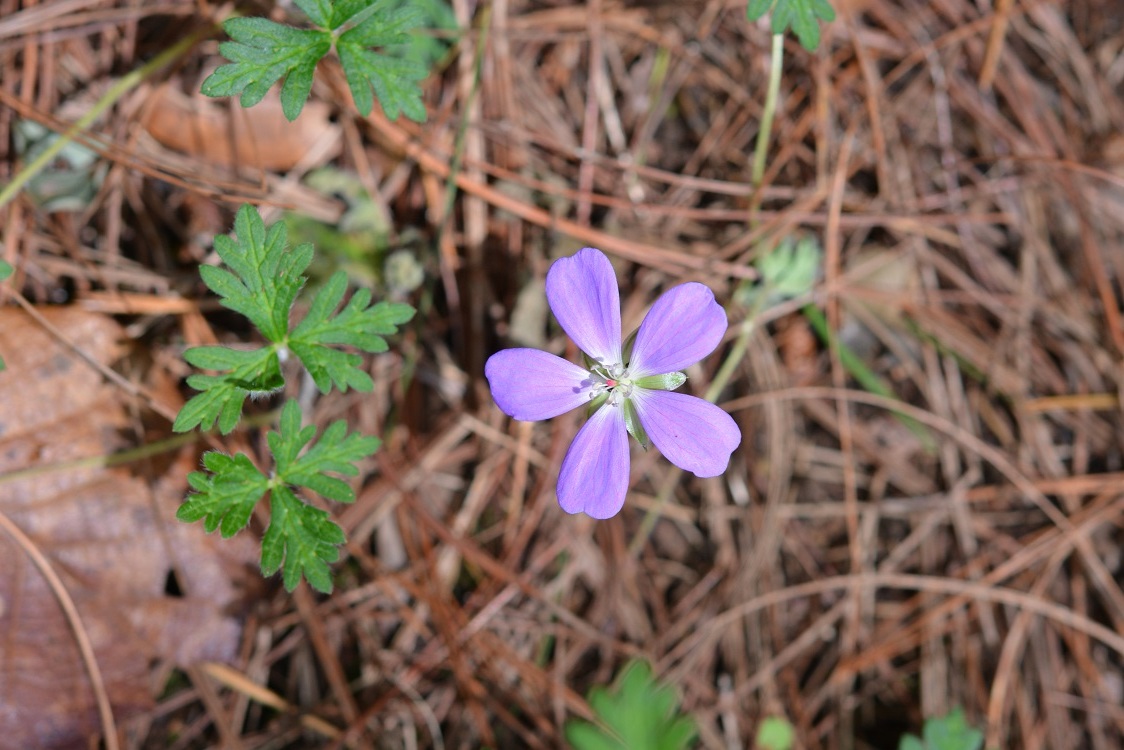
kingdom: Plantae
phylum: Tracheophyta
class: Magnoliopsida
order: Geraniales
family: Geraniaceae
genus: Geranium
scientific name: Geranium goldmanii
